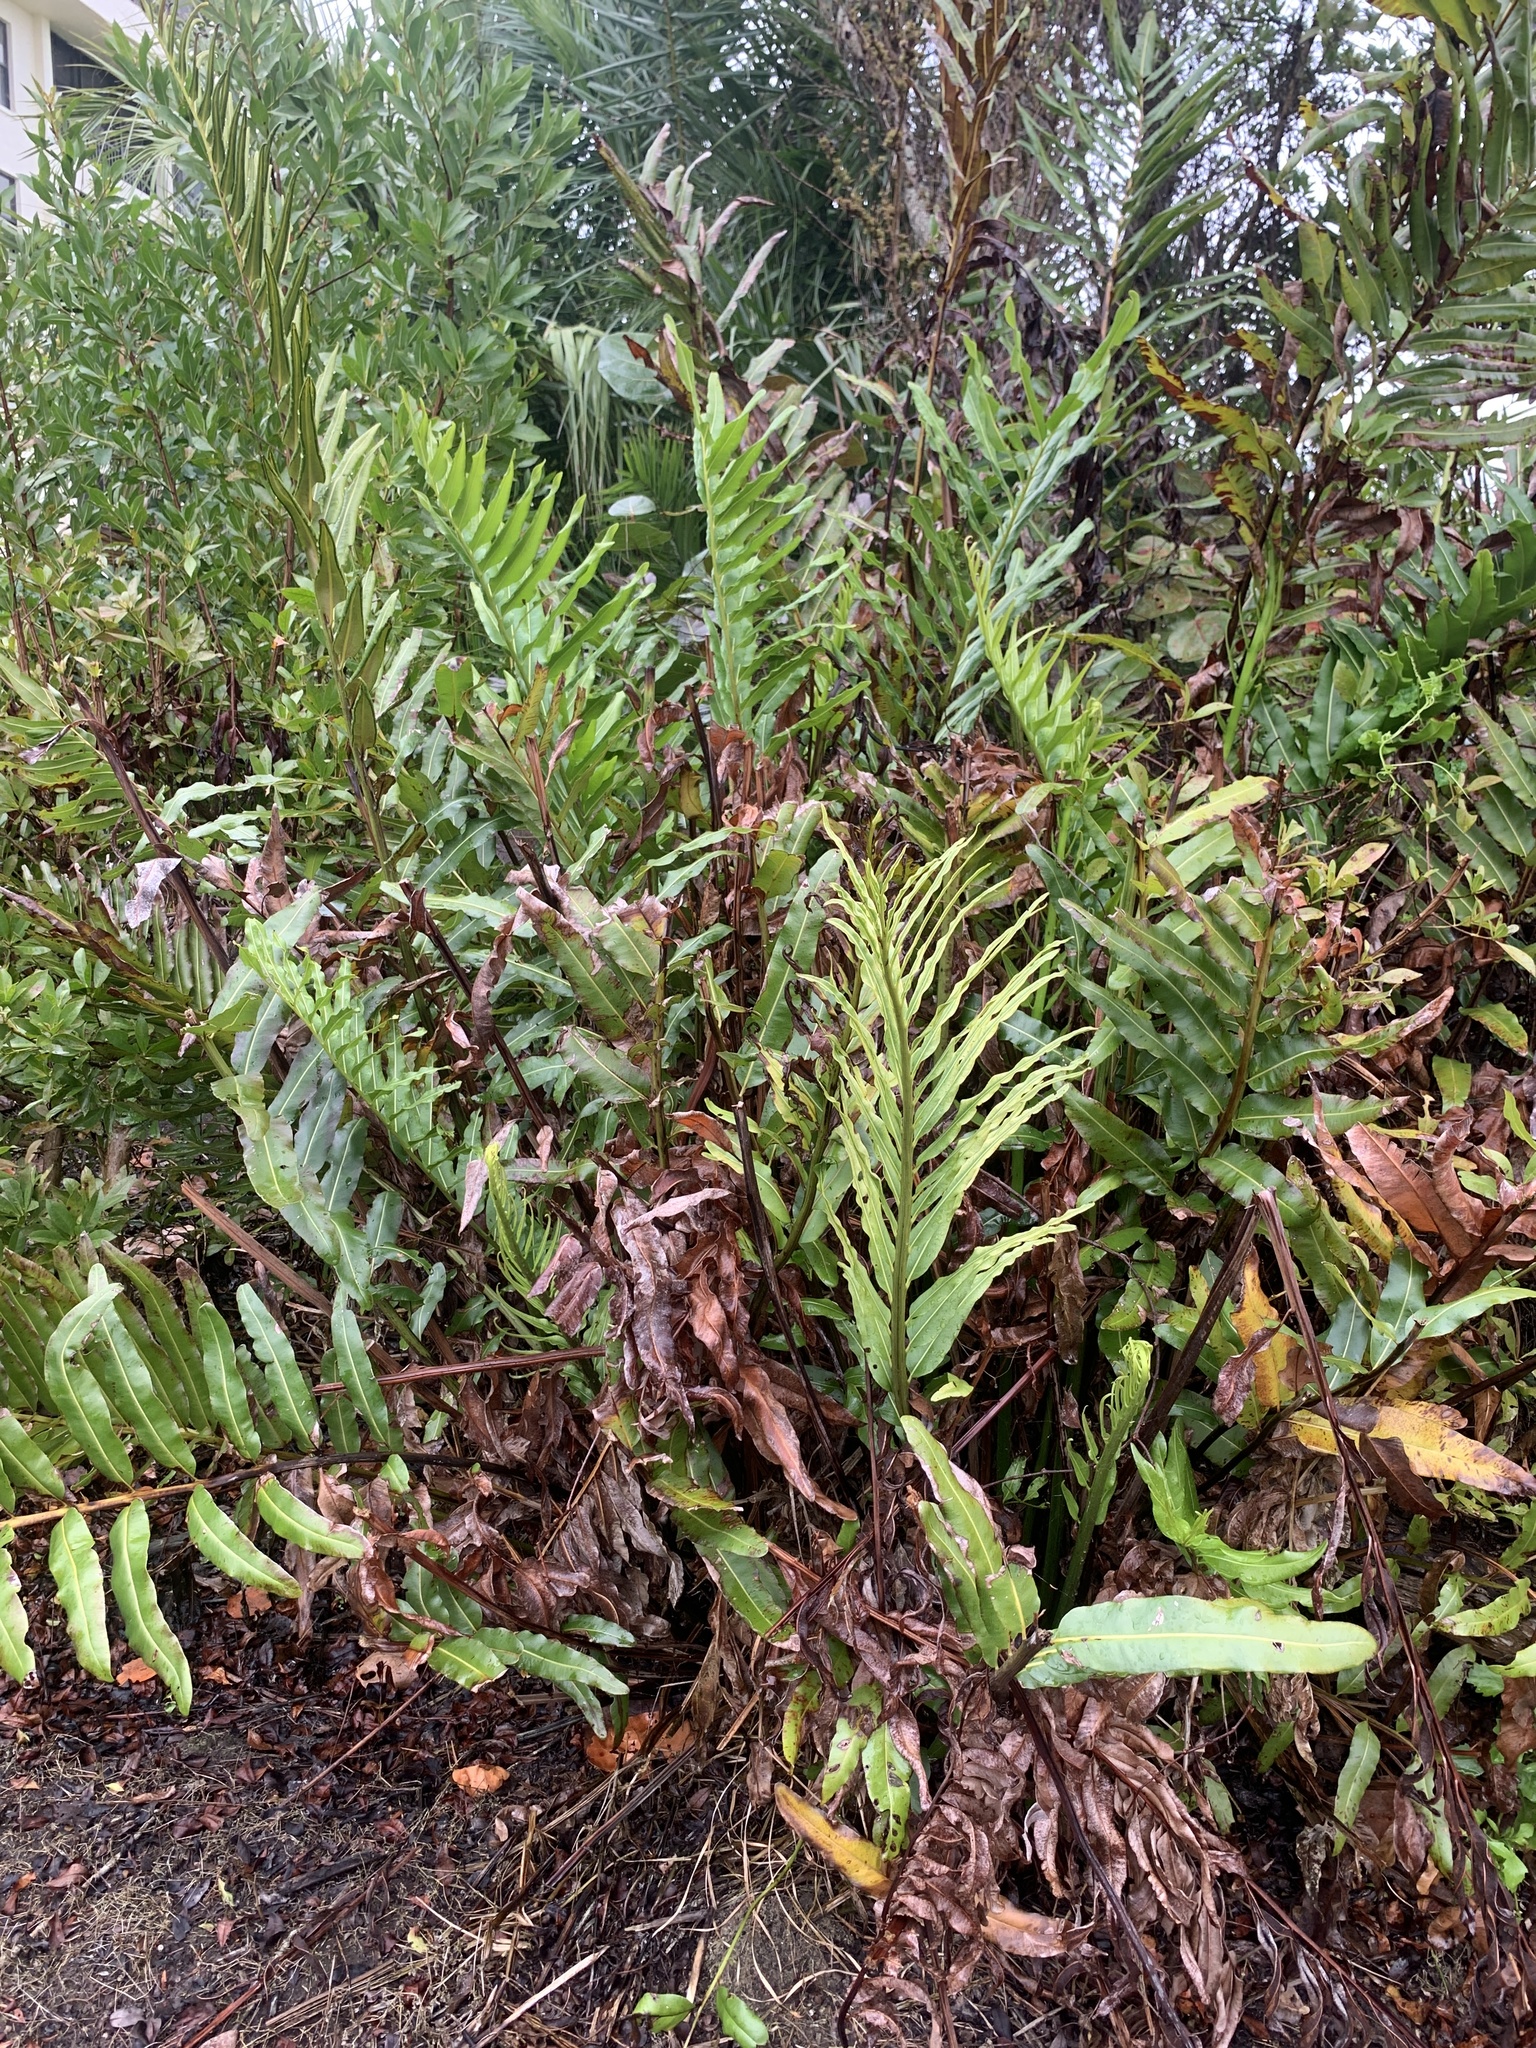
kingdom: Plantae
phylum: Tracheophyta
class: Polypodiopsida
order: Polypodiales
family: Pteridaceae
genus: Acrostichum
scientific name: Acrostichum danaeifolium
